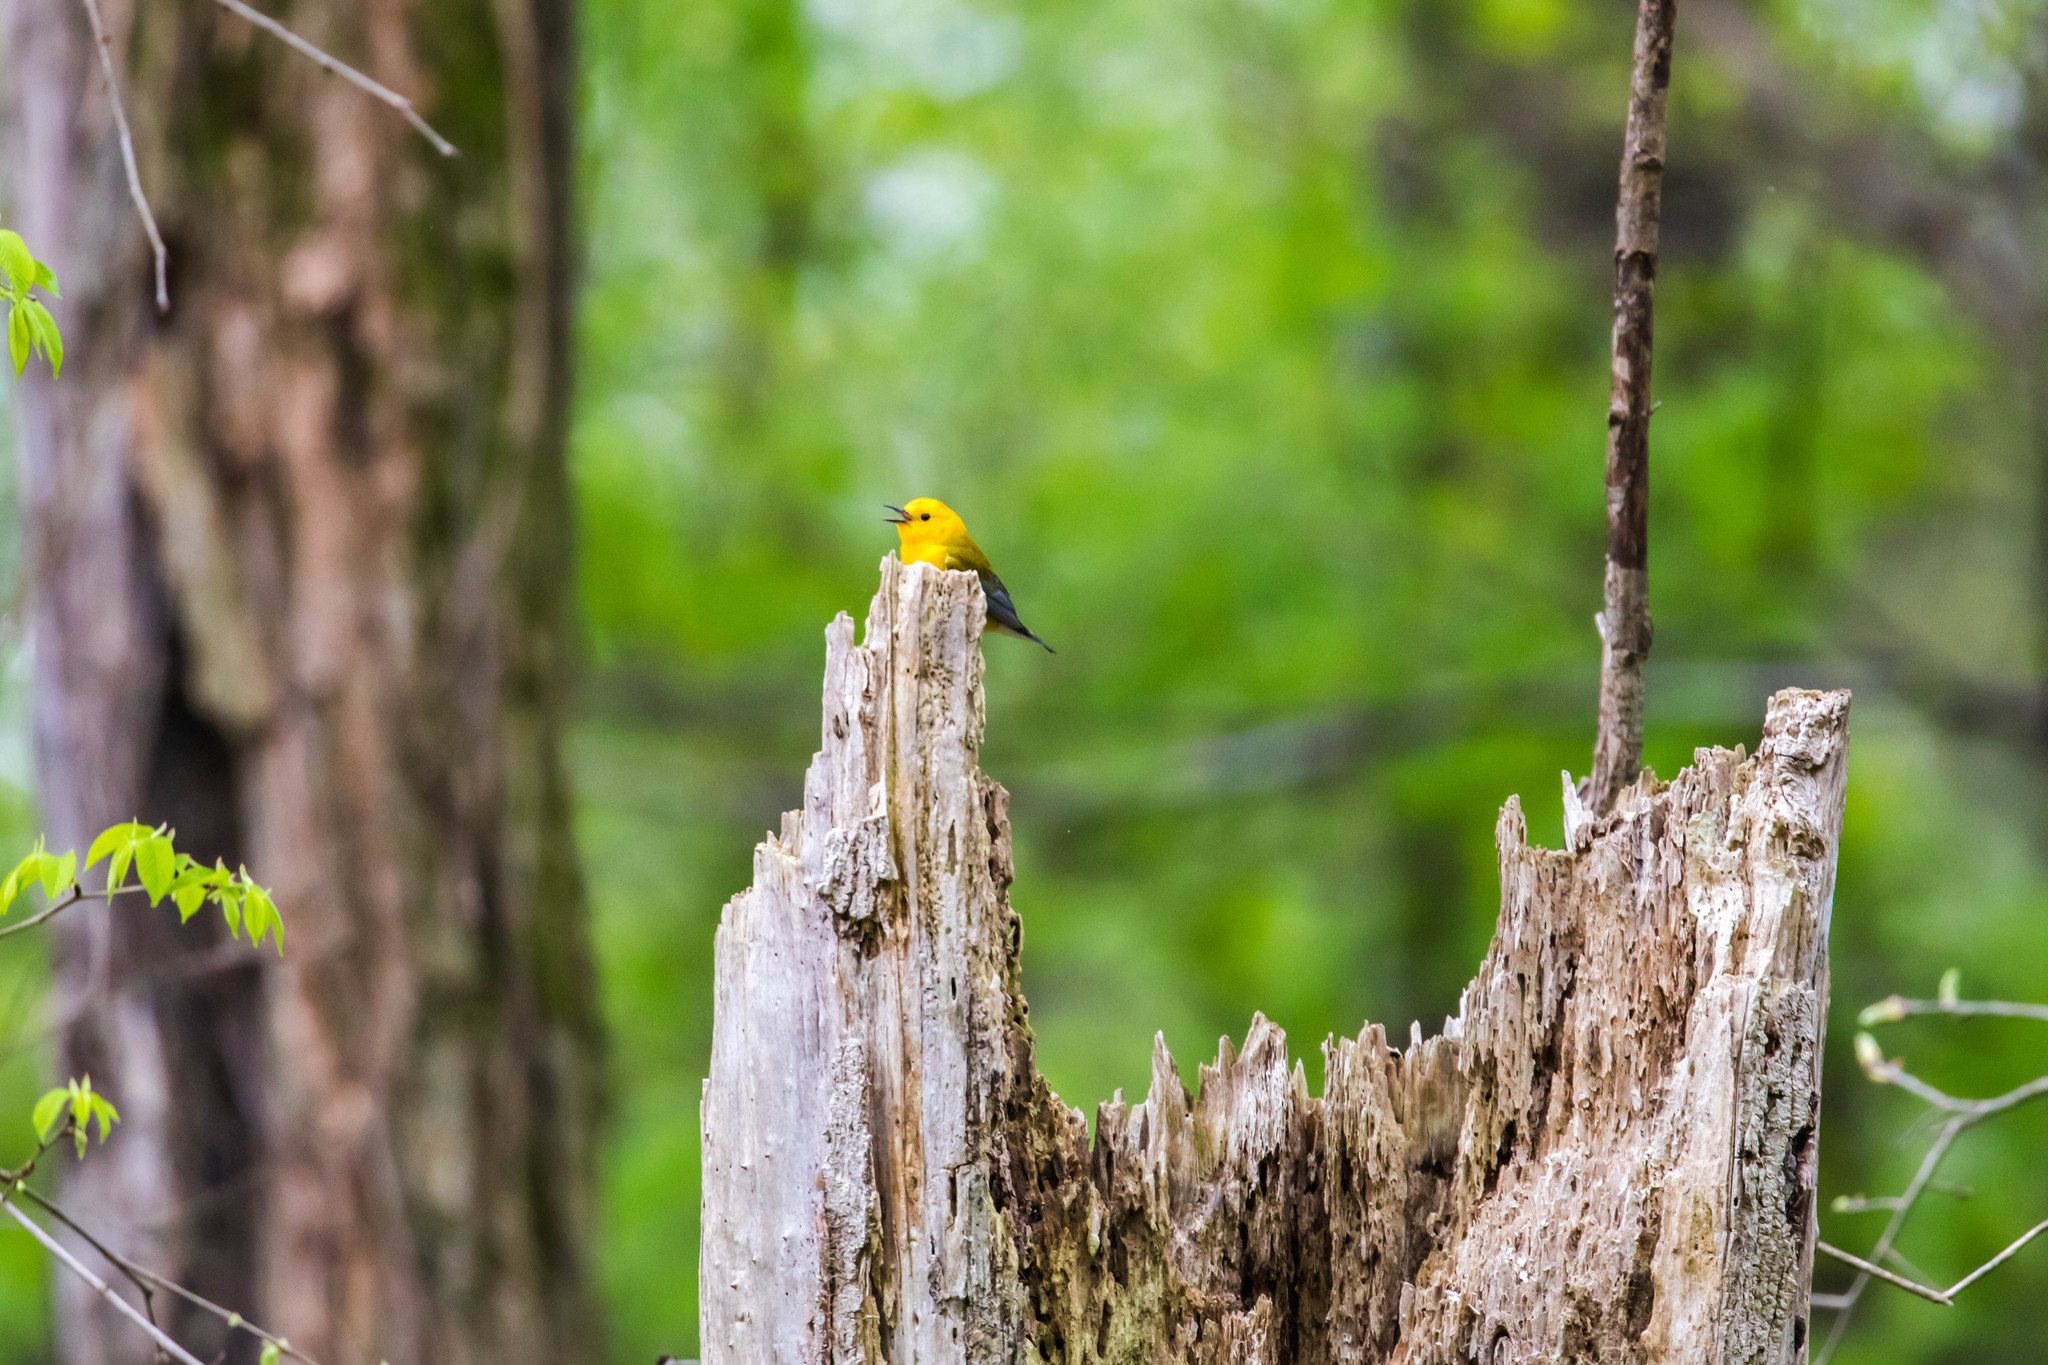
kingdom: Animalia
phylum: Chordata
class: Aves
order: Passeriformes
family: Parulidae
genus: Protonotaria
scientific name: Protonotaria citrea
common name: Prothonotary warbler
